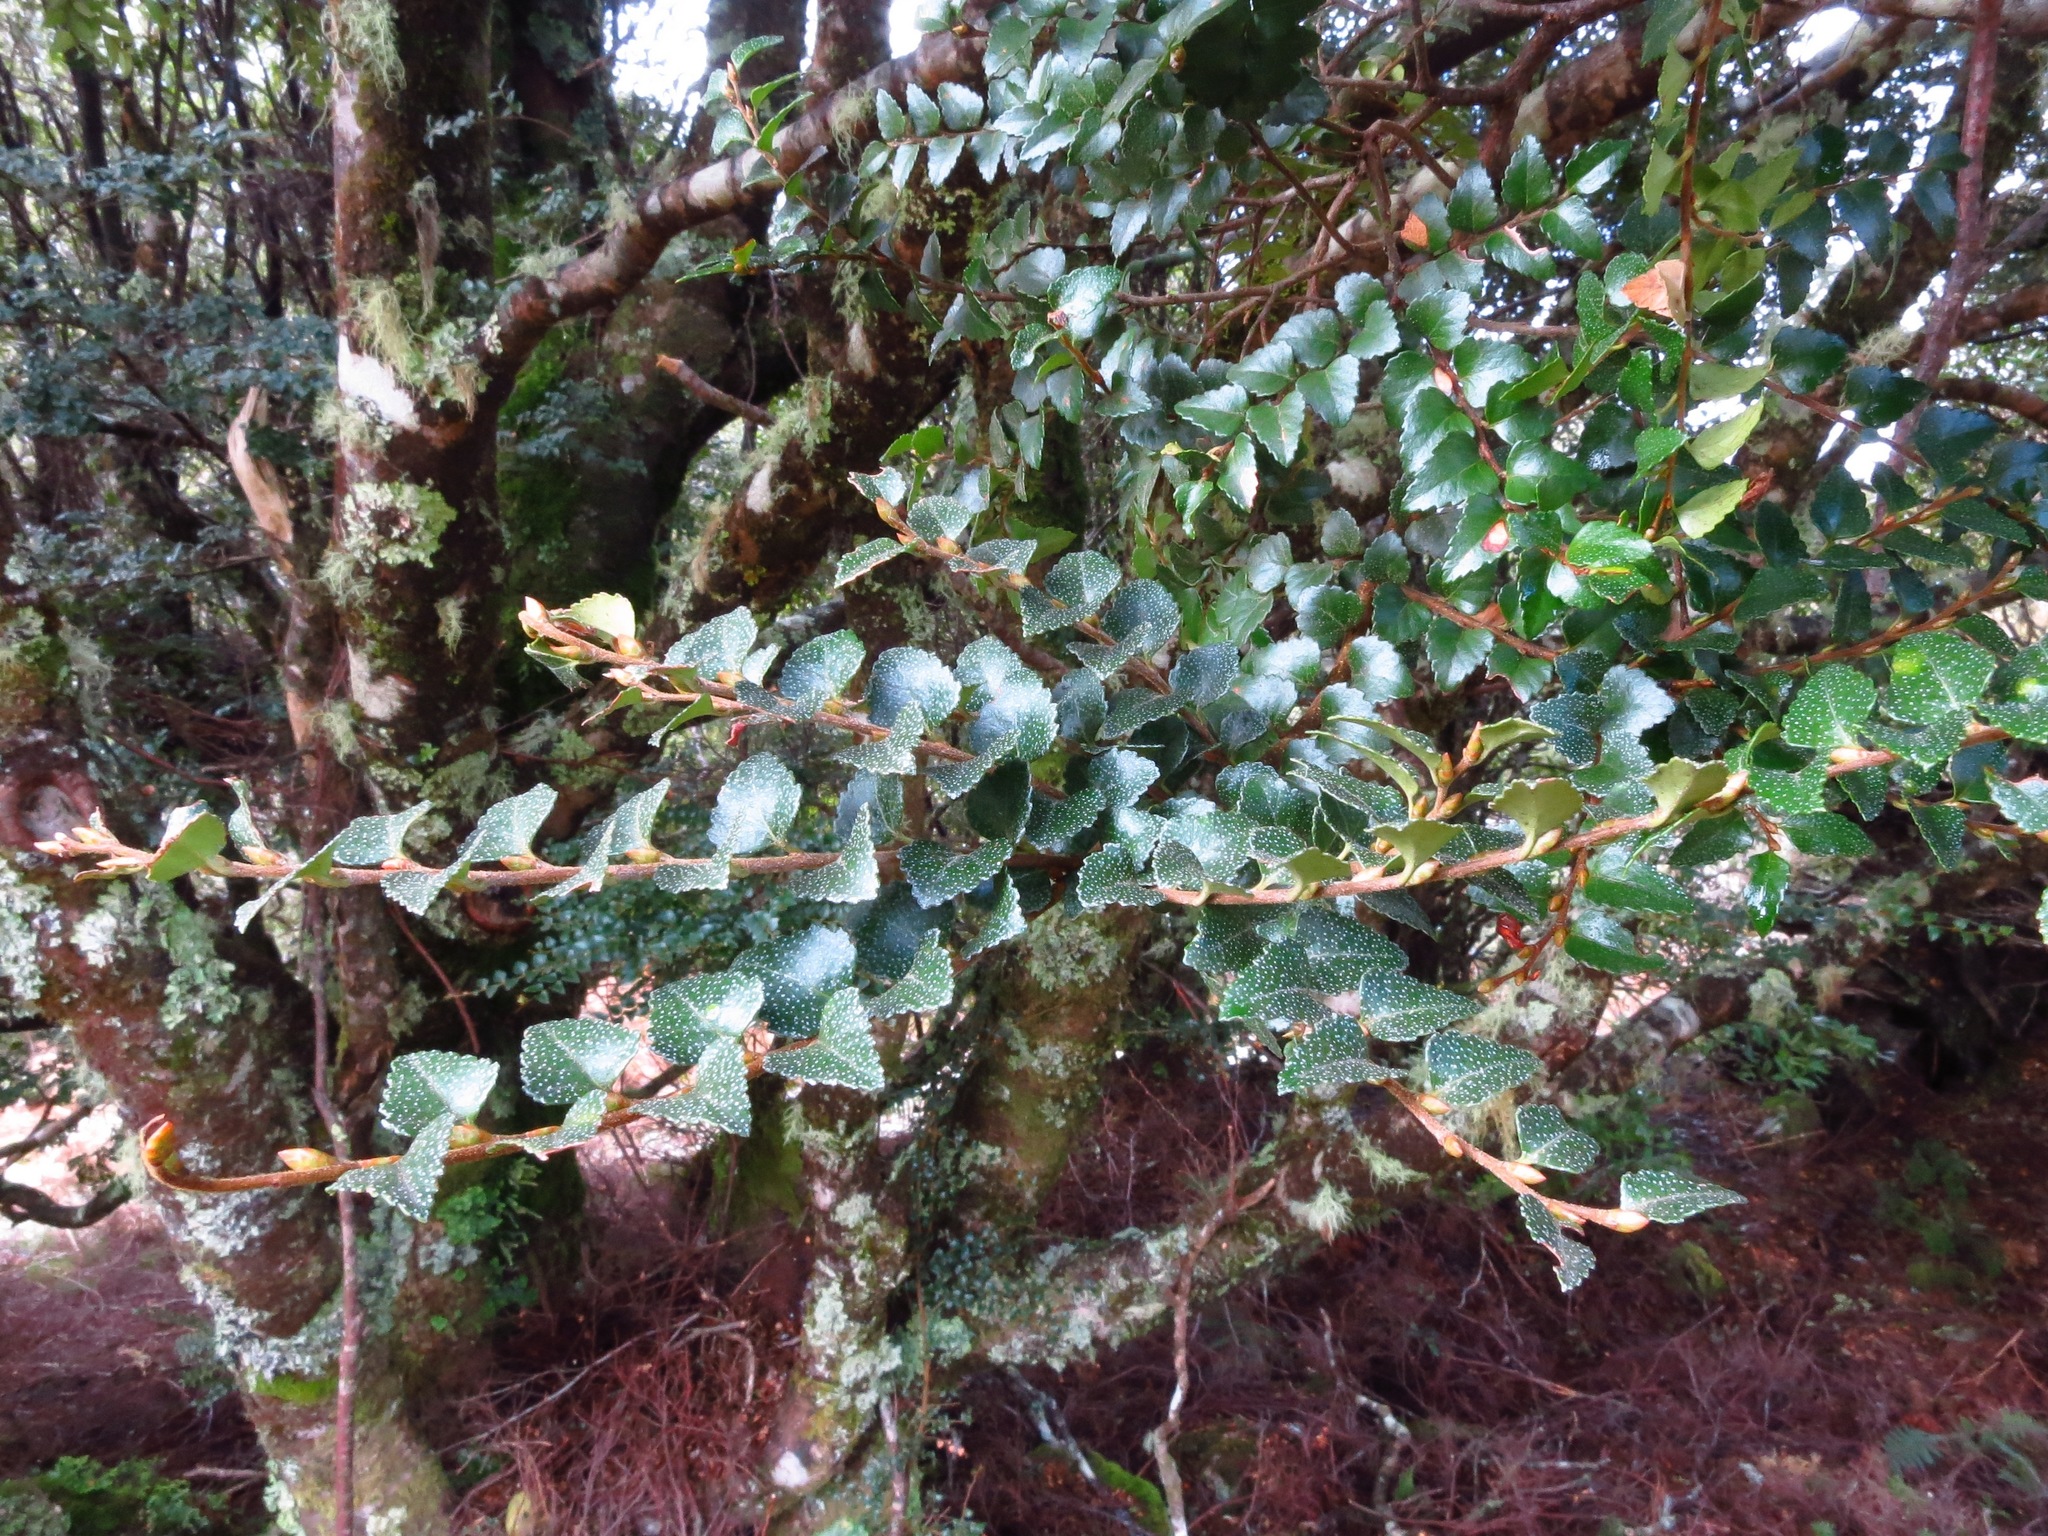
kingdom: Plantae
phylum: Tracheophyta
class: Magnoliopsida
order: Fagales
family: Nothofagaceae
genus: Nothofagus
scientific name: Nothofagus cunninghamii
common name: Myrtle beech
